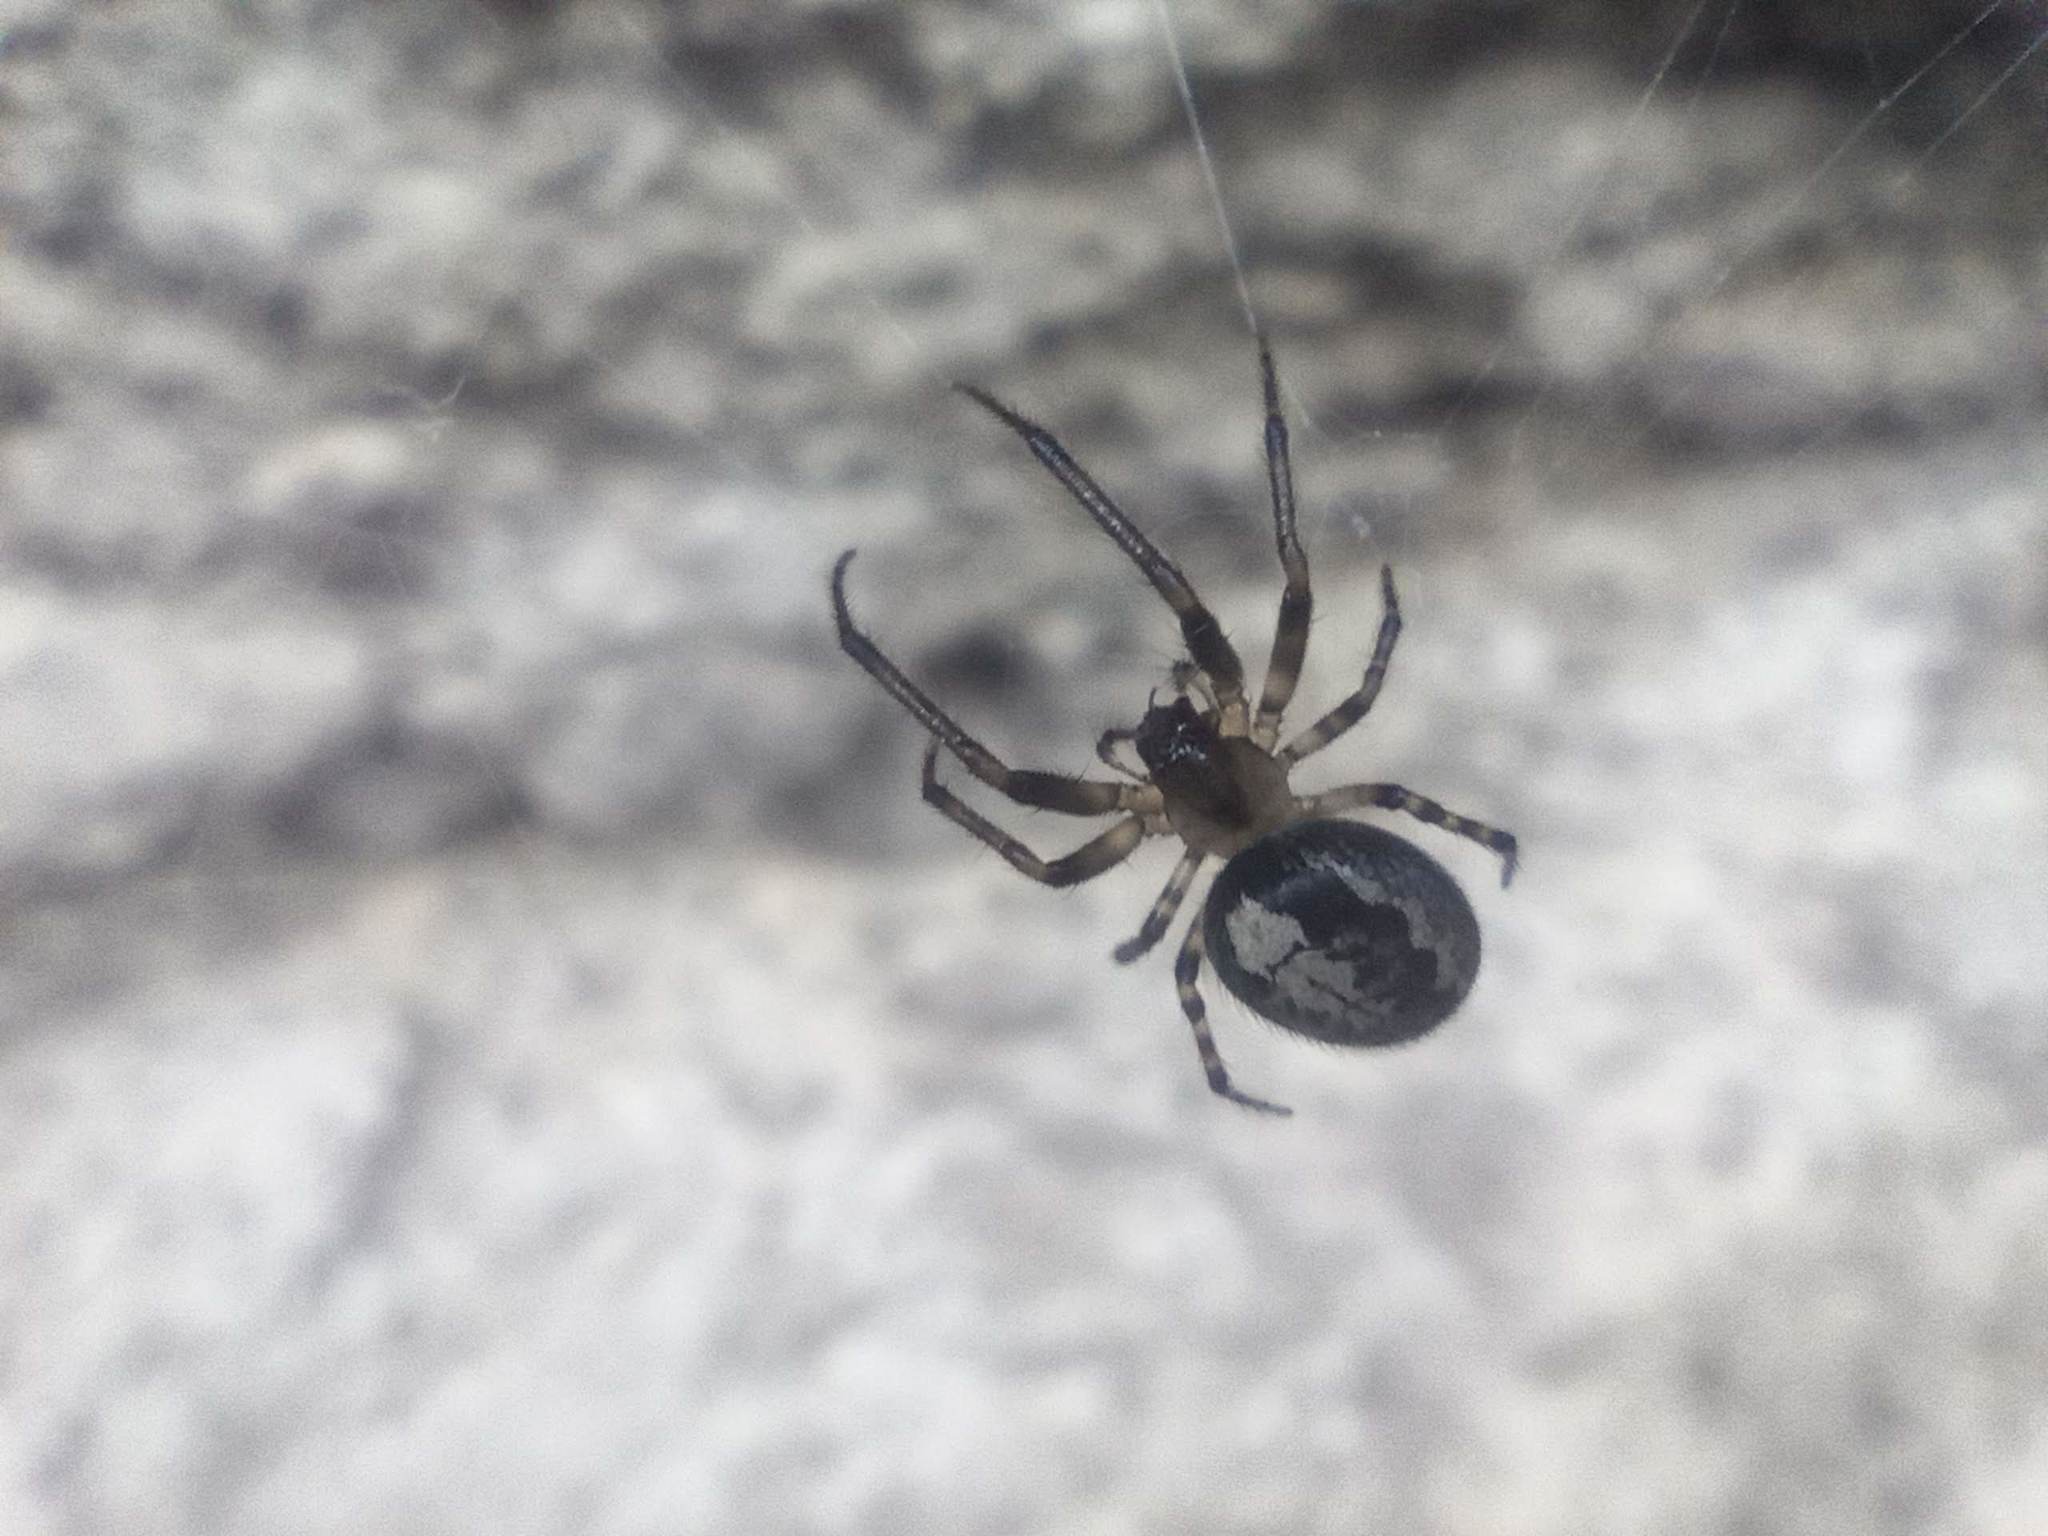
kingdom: Animalia
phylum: Arthropoda
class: Arachnida
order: Araneae
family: Araneidae
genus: Zygiella
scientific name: Zygiella minima
